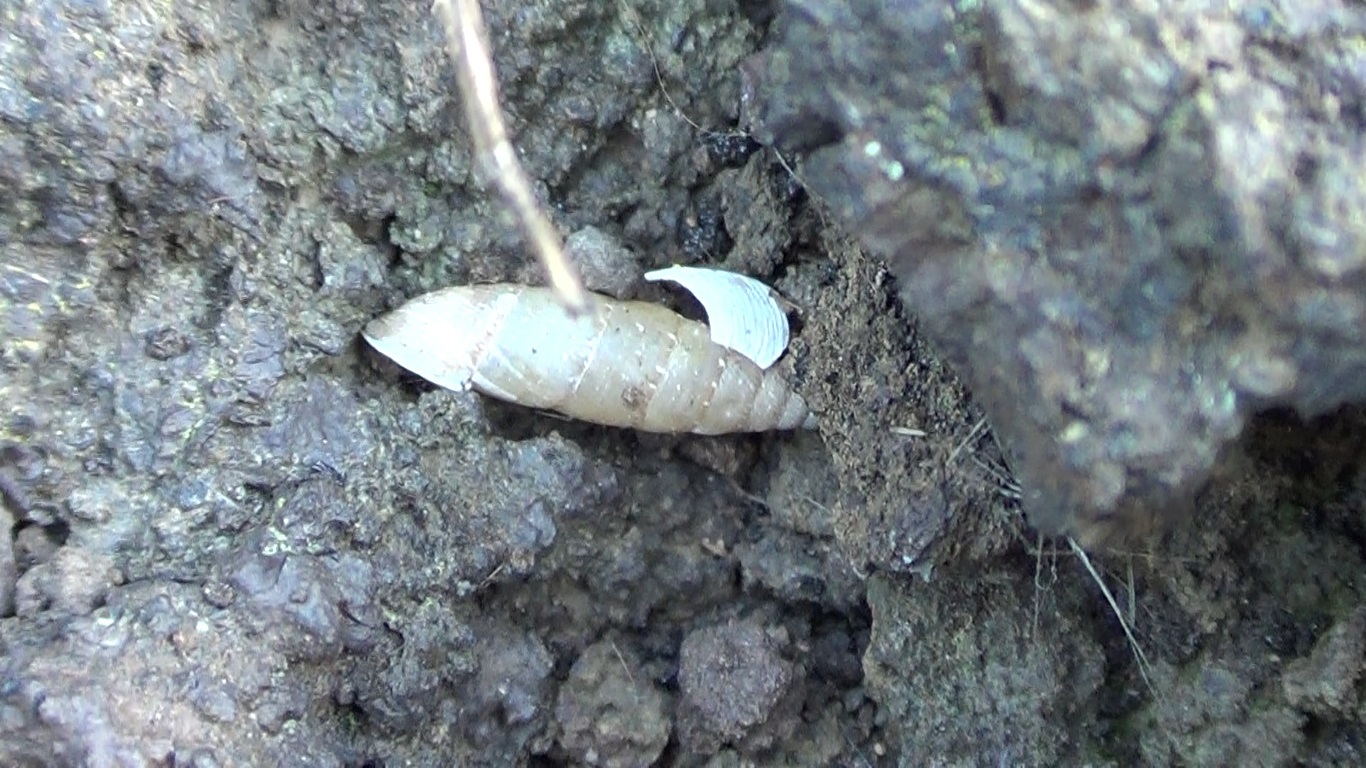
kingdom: Animalia
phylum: Mollusca
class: Gastropoda
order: Stylommatophora
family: Clausiliidae
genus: Papillifera
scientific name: Papillifera papillaris
